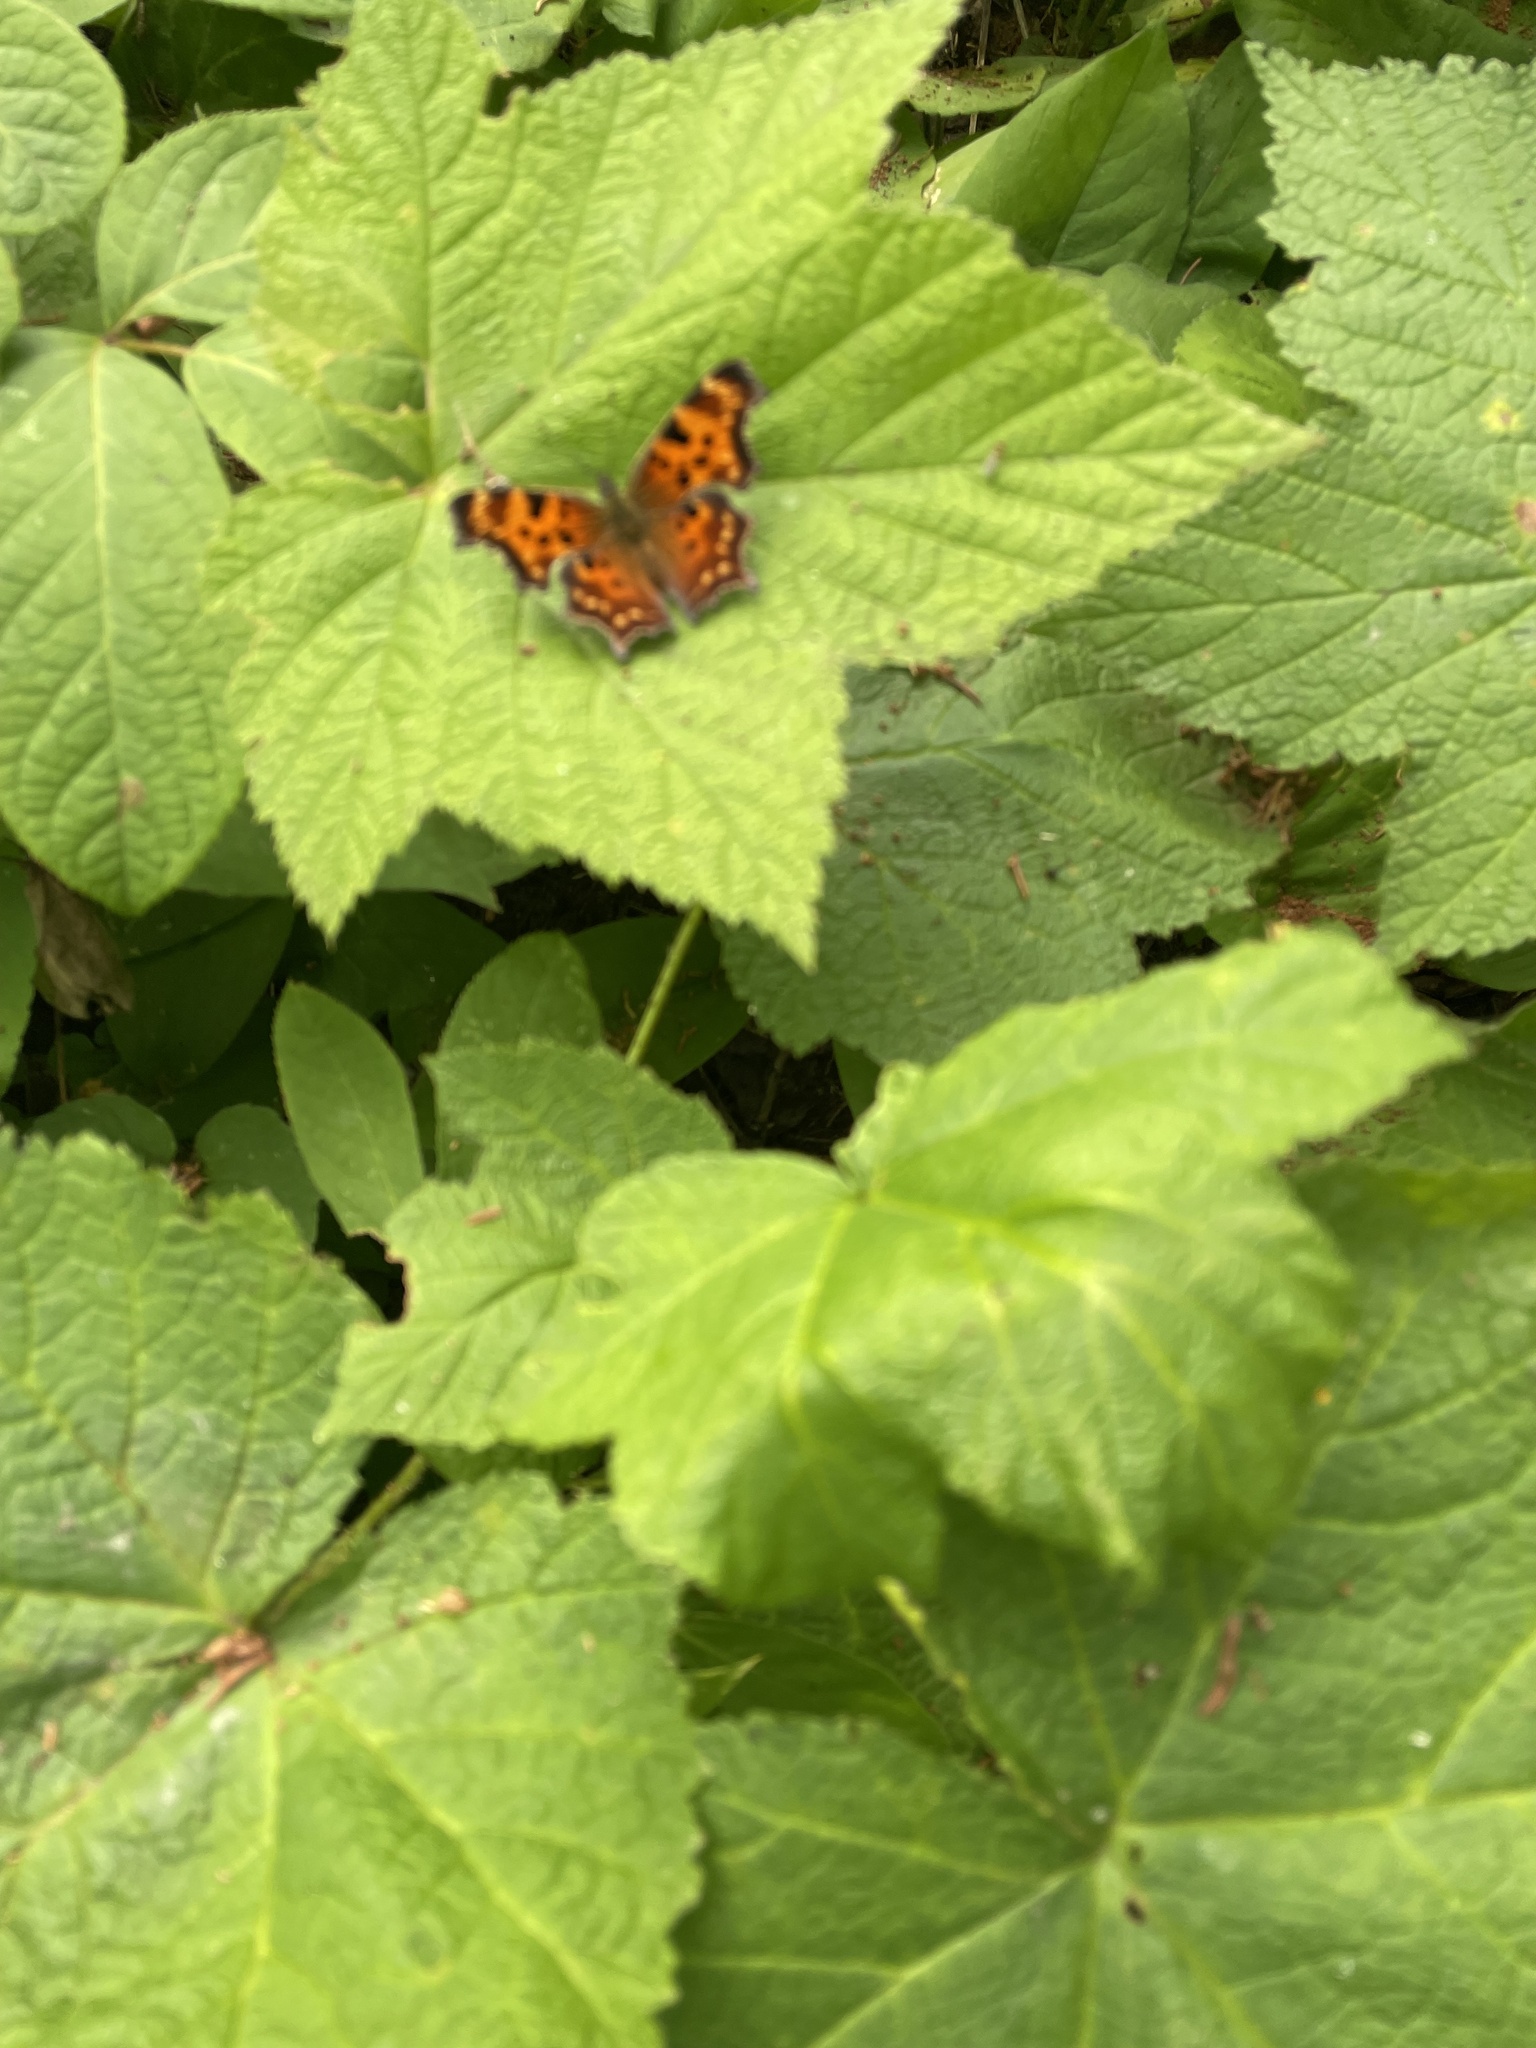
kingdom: Animalia
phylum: Arthropoda
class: Insecta
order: Lepidoptera
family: Nymphalidae
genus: Polygonia
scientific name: Polygonia faunus
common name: Green comma
